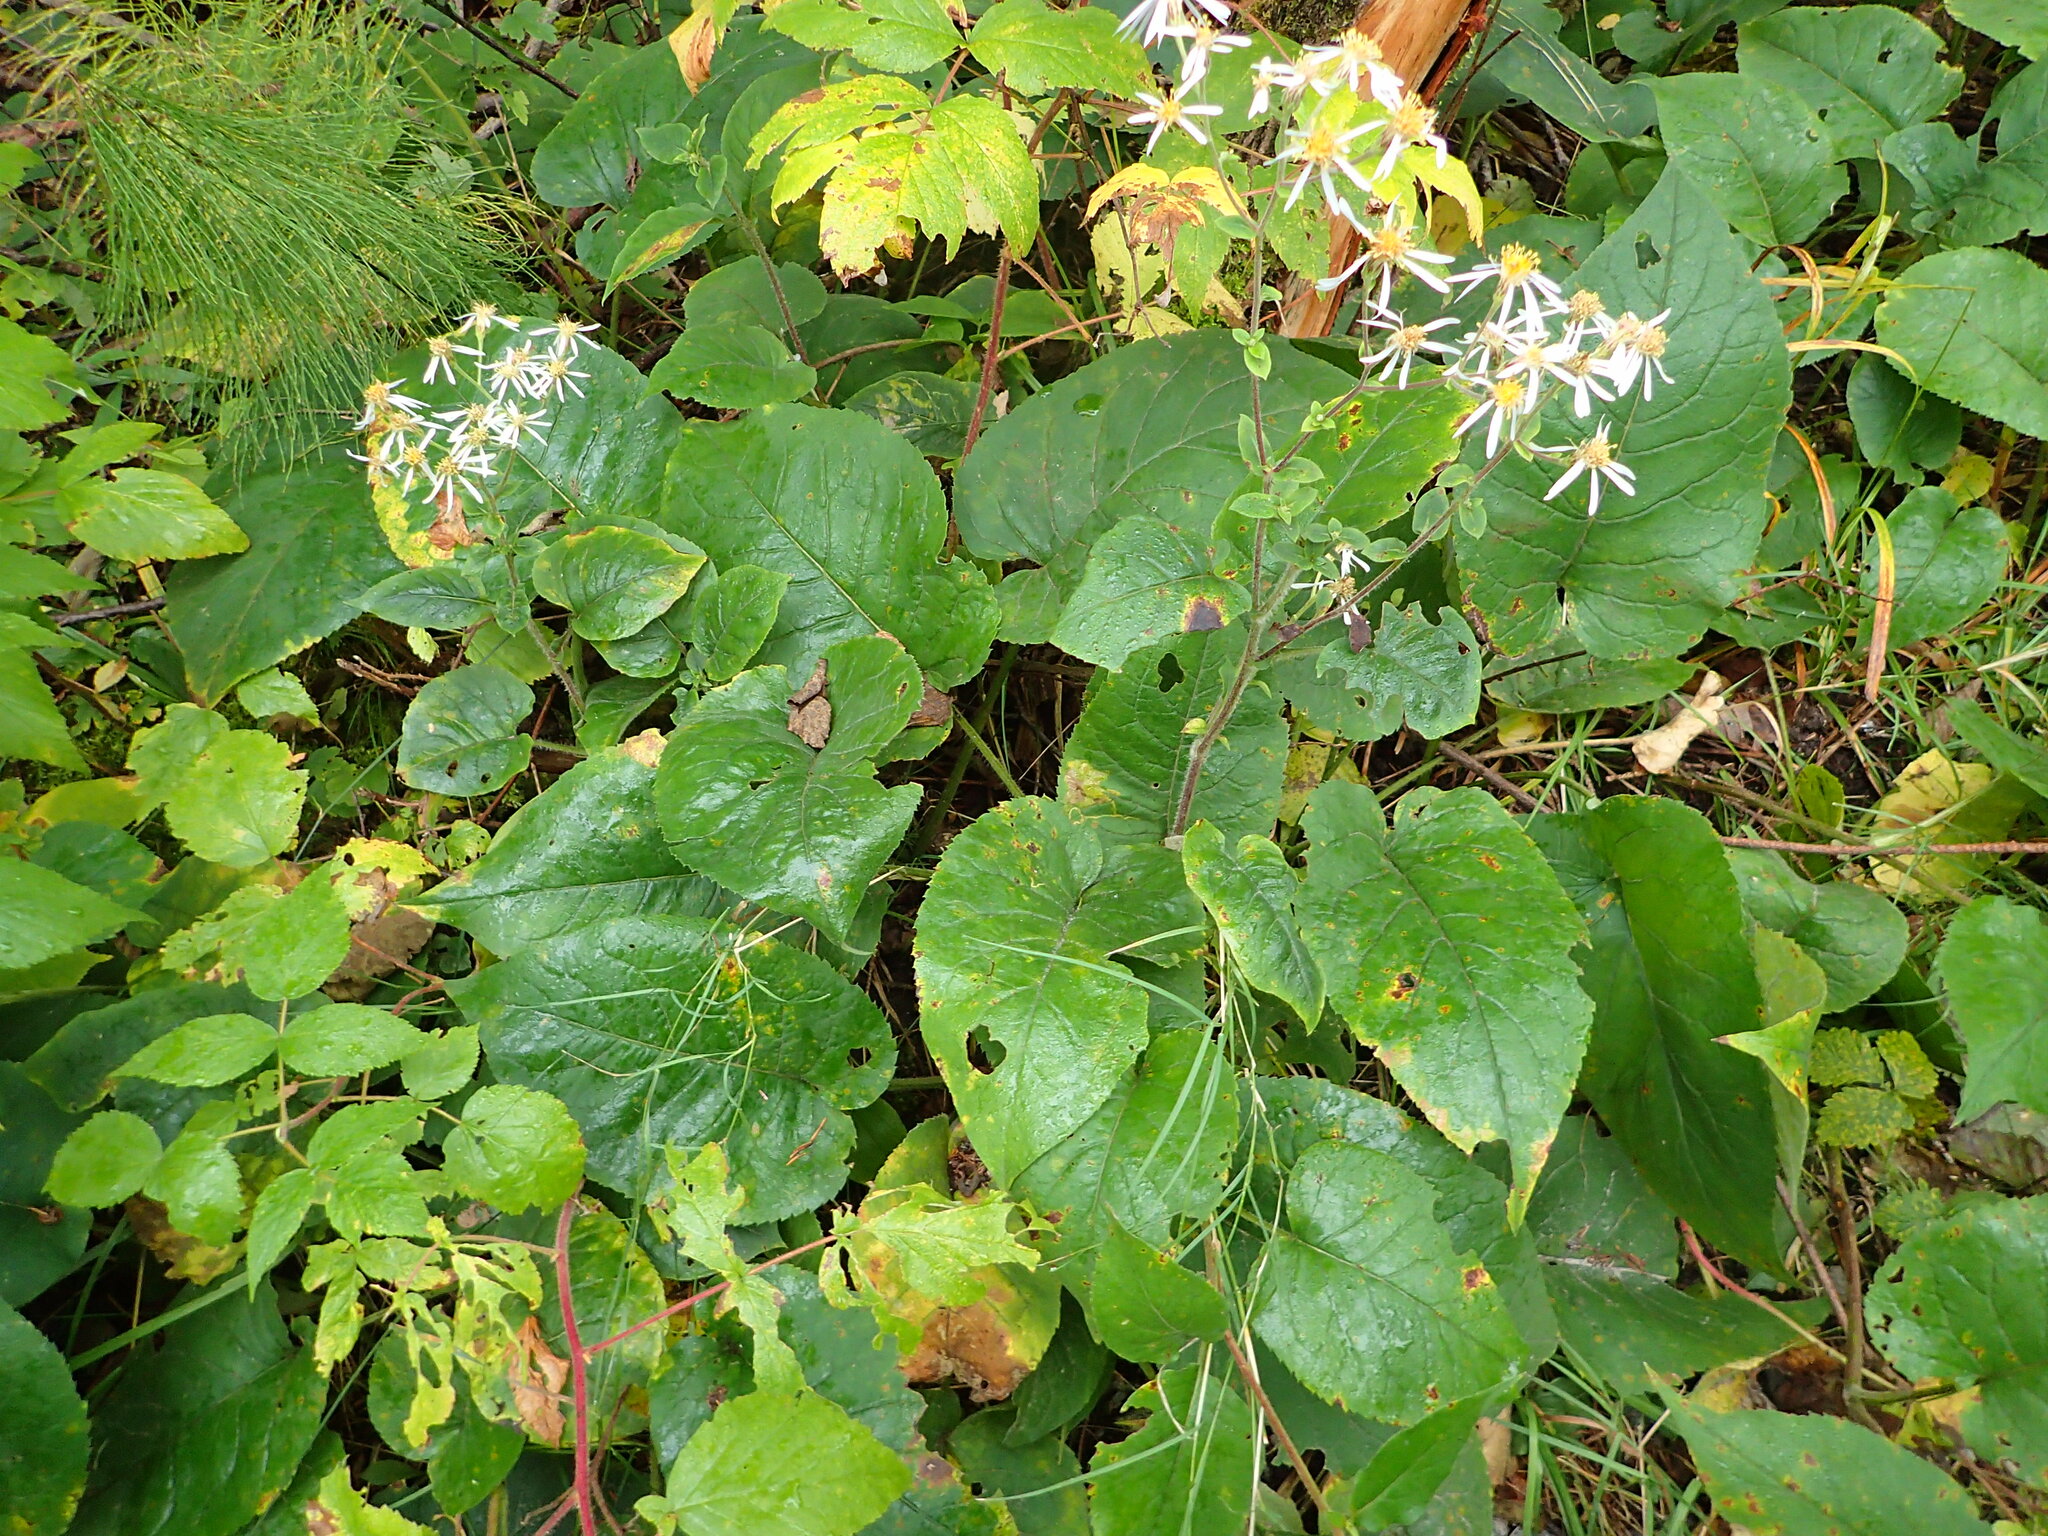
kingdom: Plantae
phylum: Tracheophyta
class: Magnoliopsida
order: Asterales
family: Asteraceae
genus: Eurybia
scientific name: Eurybia macrophylla
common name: Big-leaved aster
